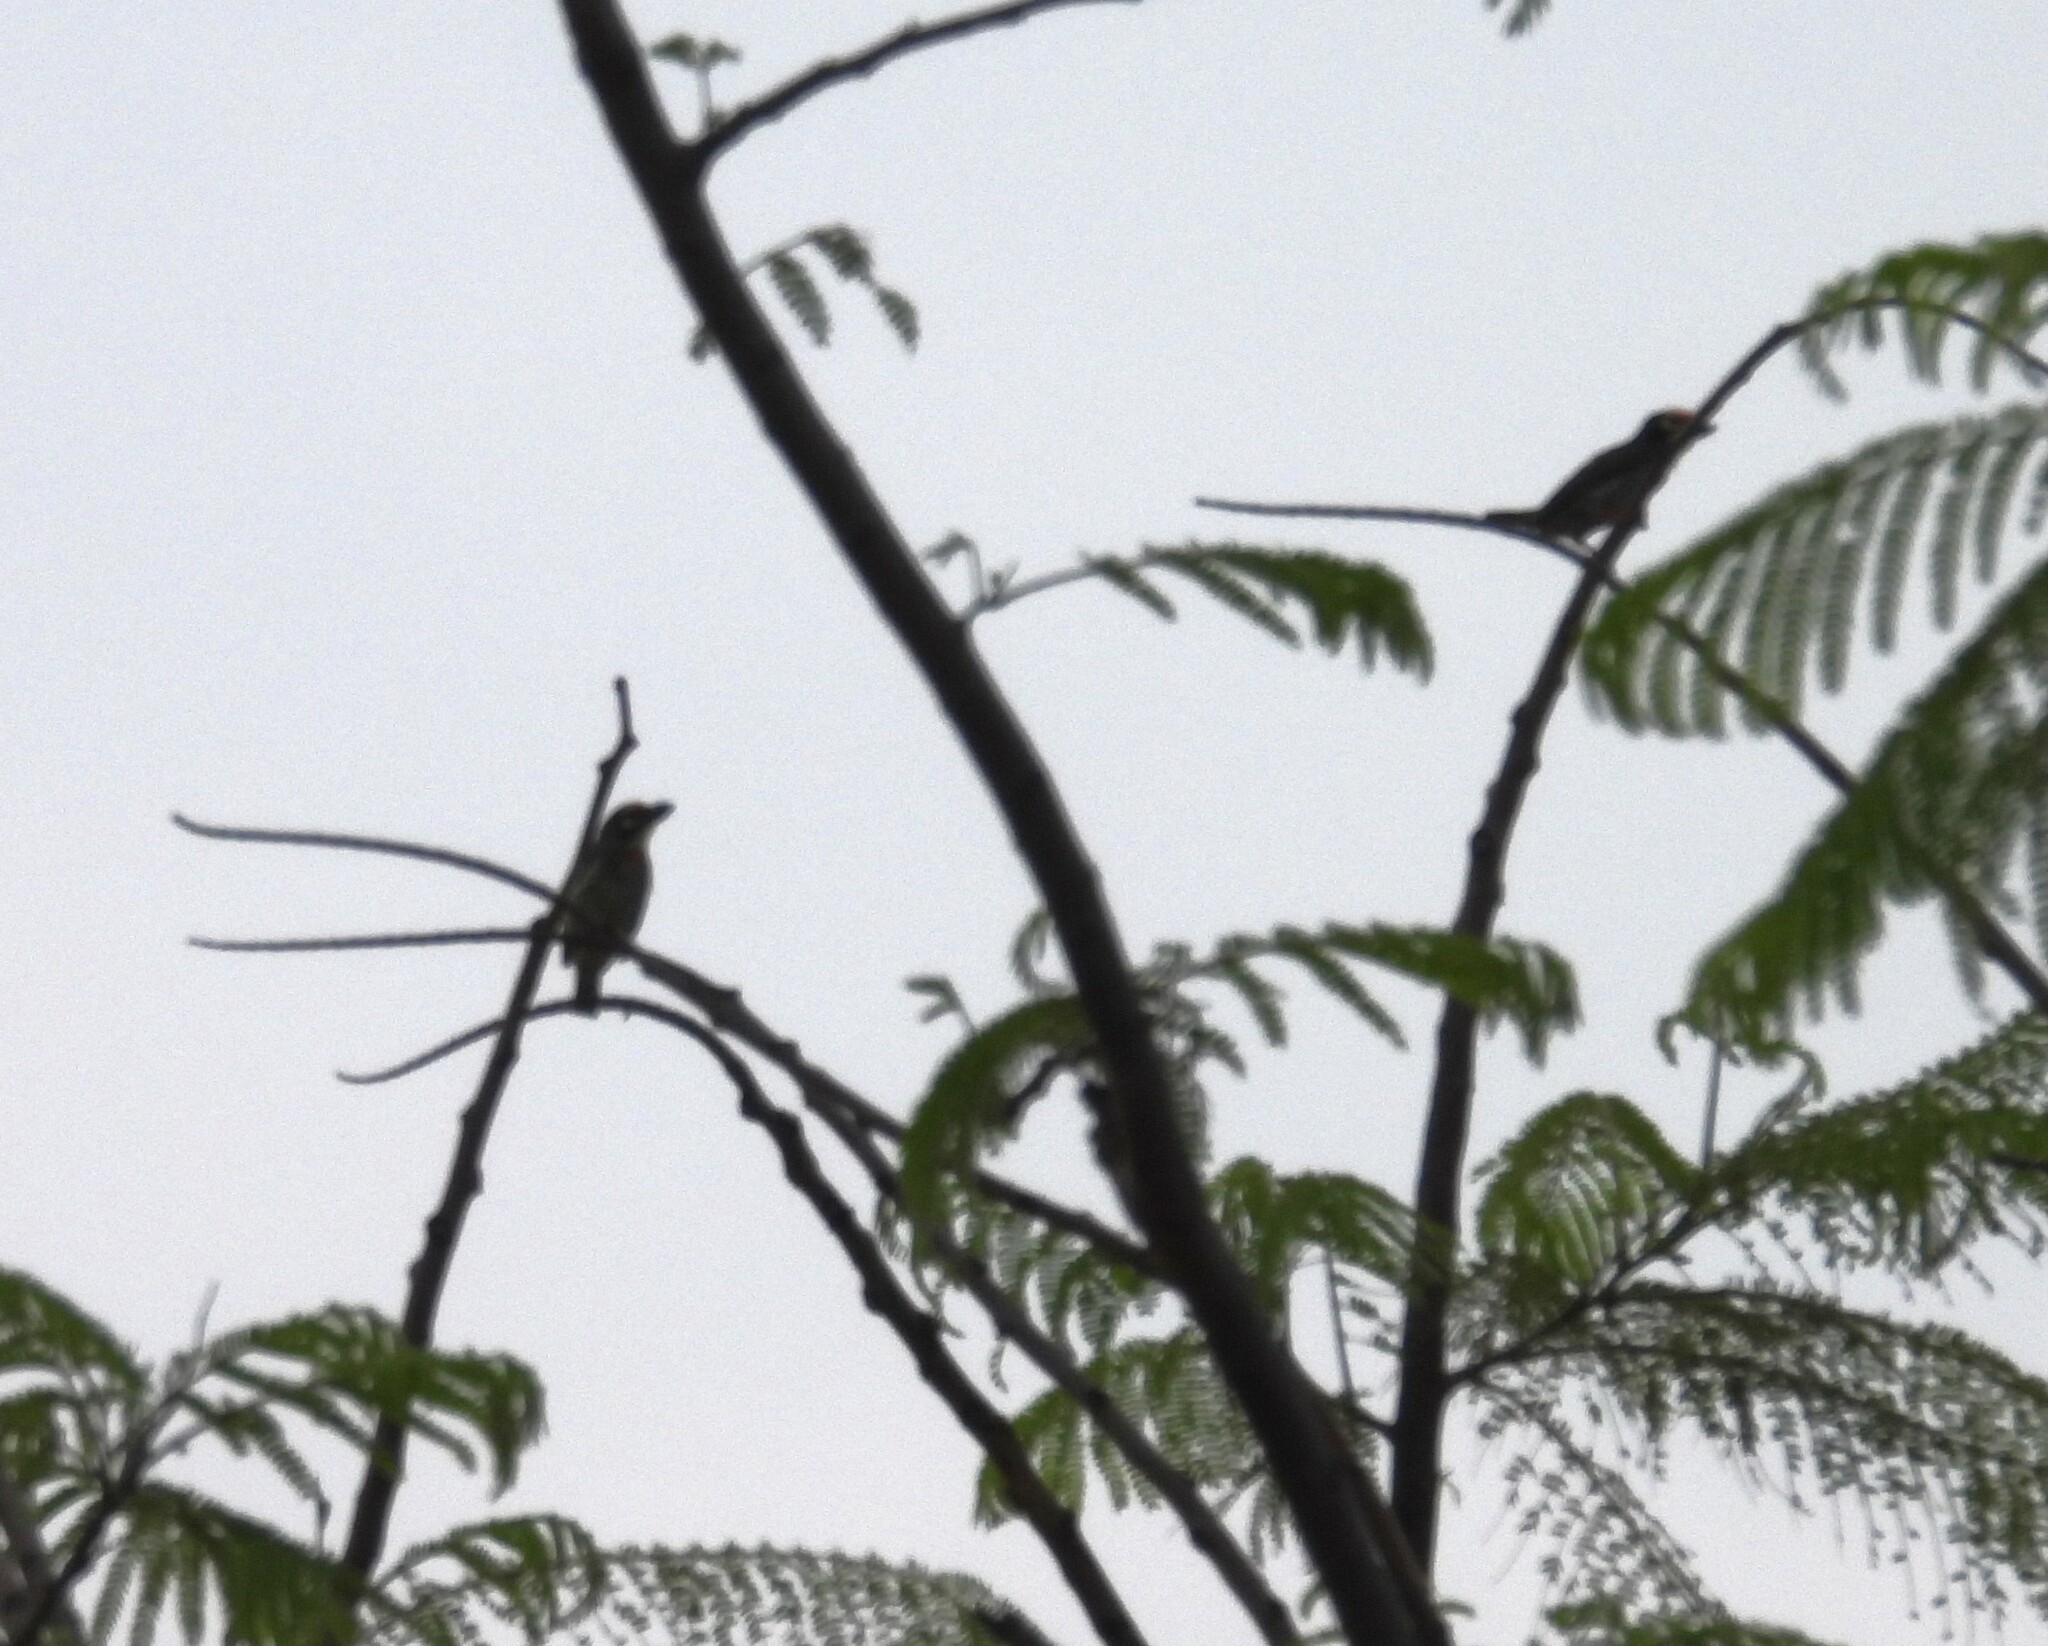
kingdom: Animalia
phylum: Chordata
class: Aves
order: Piciformes
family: Megalaimidae
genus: Psilopogon
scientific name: Psilopogon haemacephalus
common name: Coppersmith barbet
